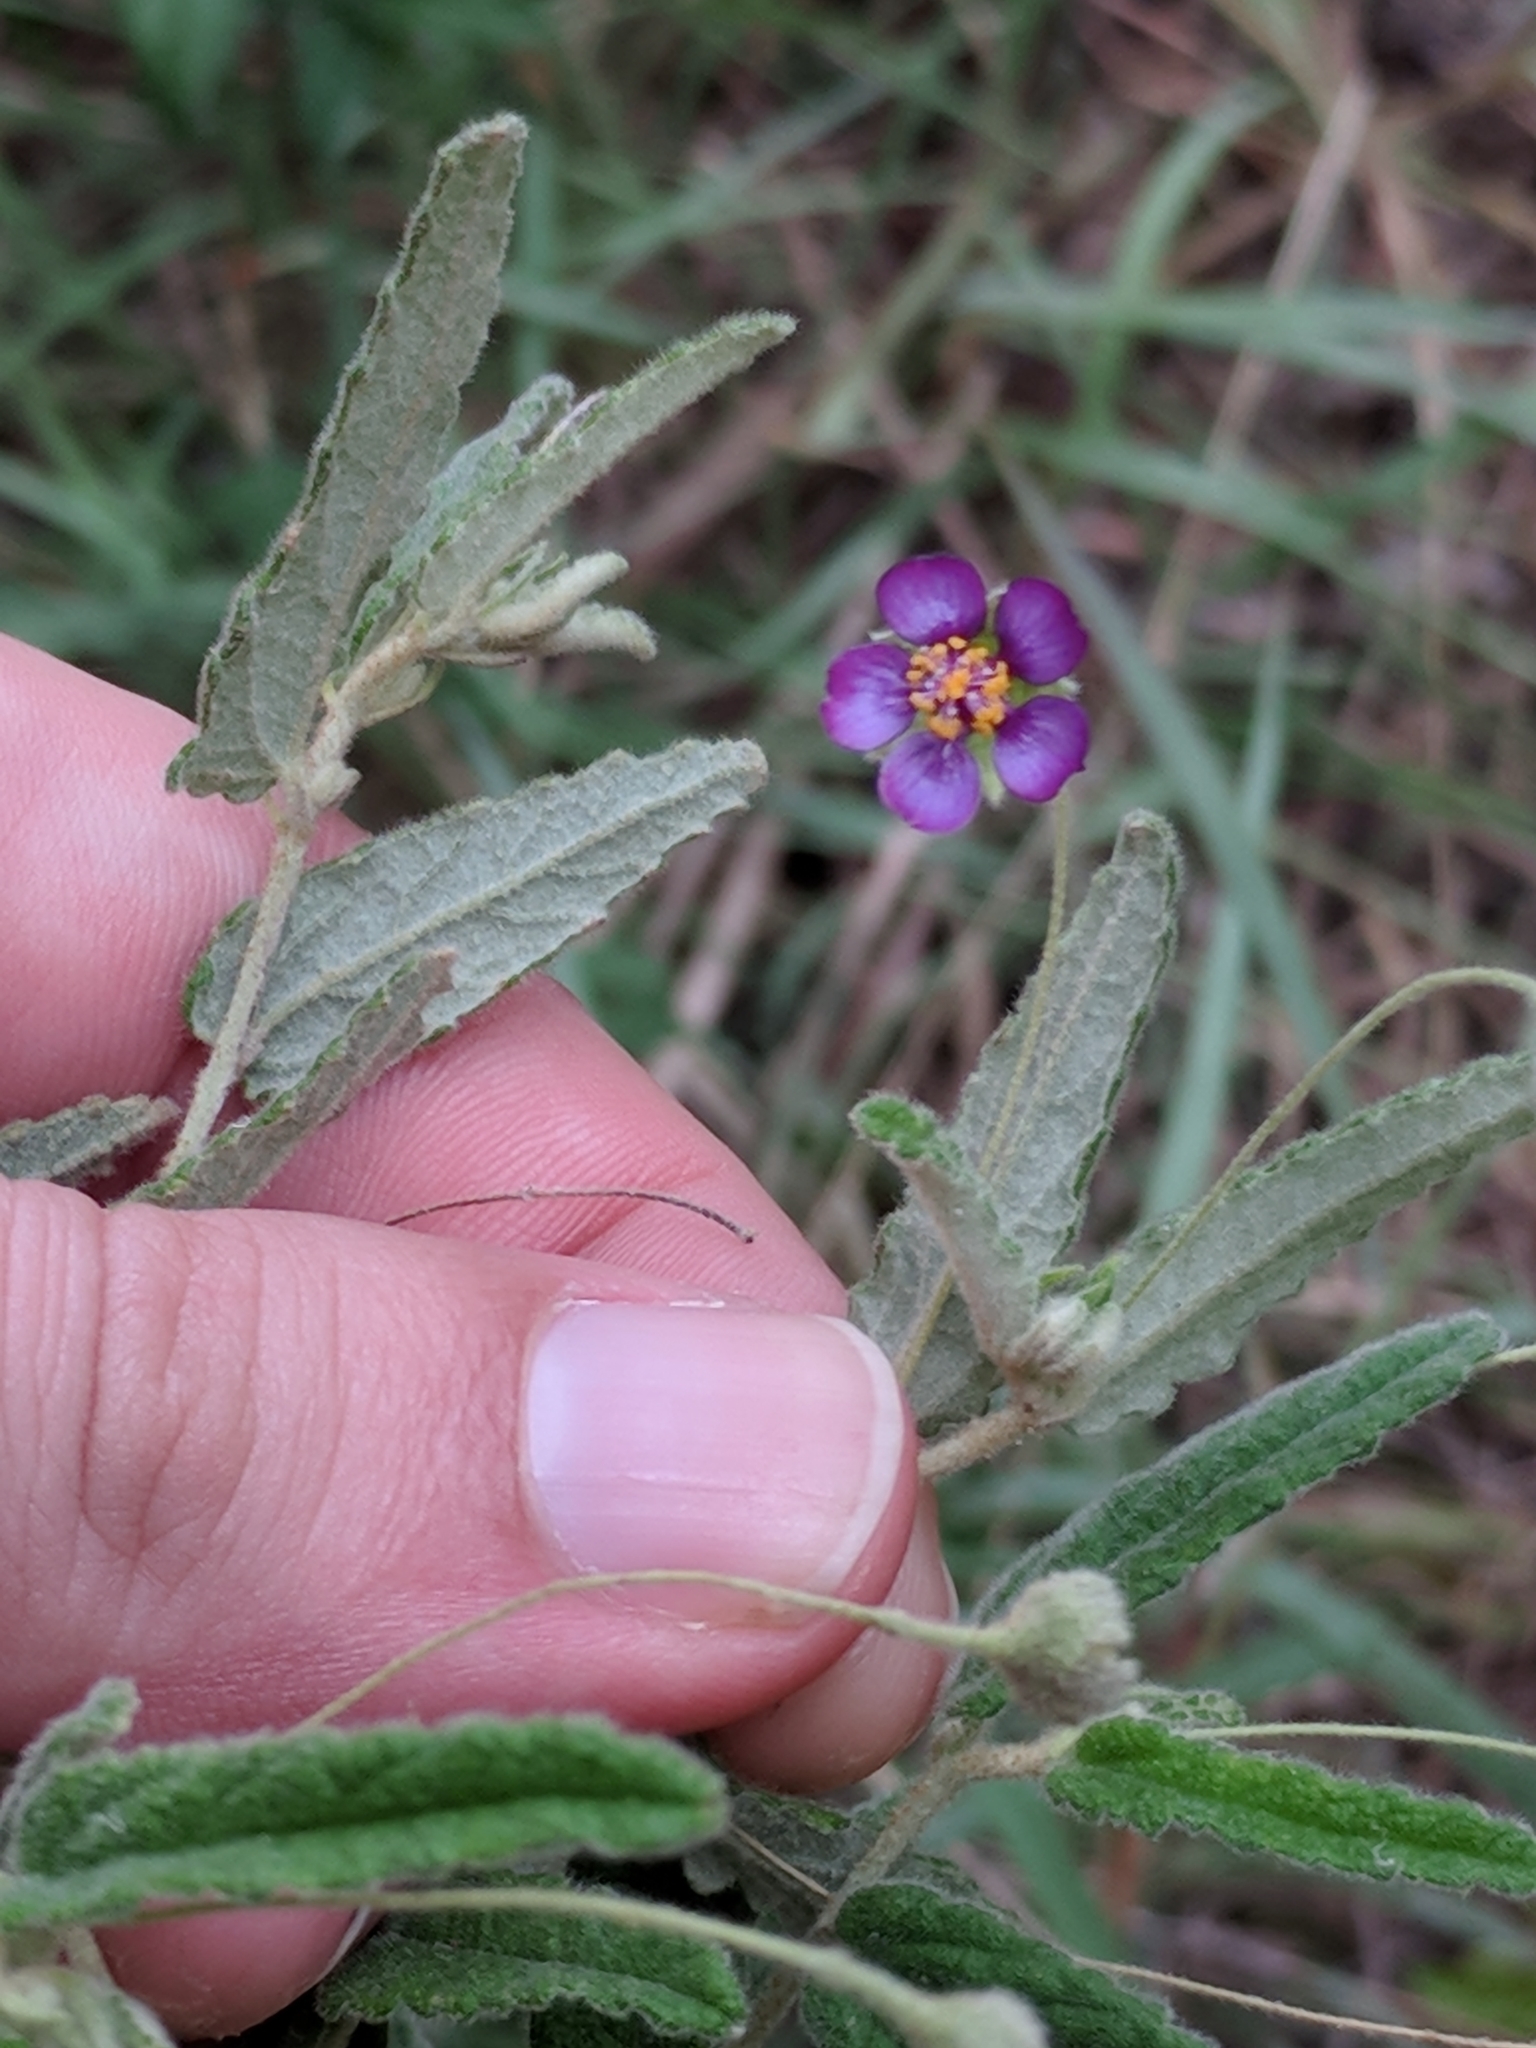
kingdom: Plantae
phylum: Tracheophyta
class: Magnoliopsida
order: Malvales
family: Malvaceae
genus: Meximalva
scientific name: Meximalva filipes
